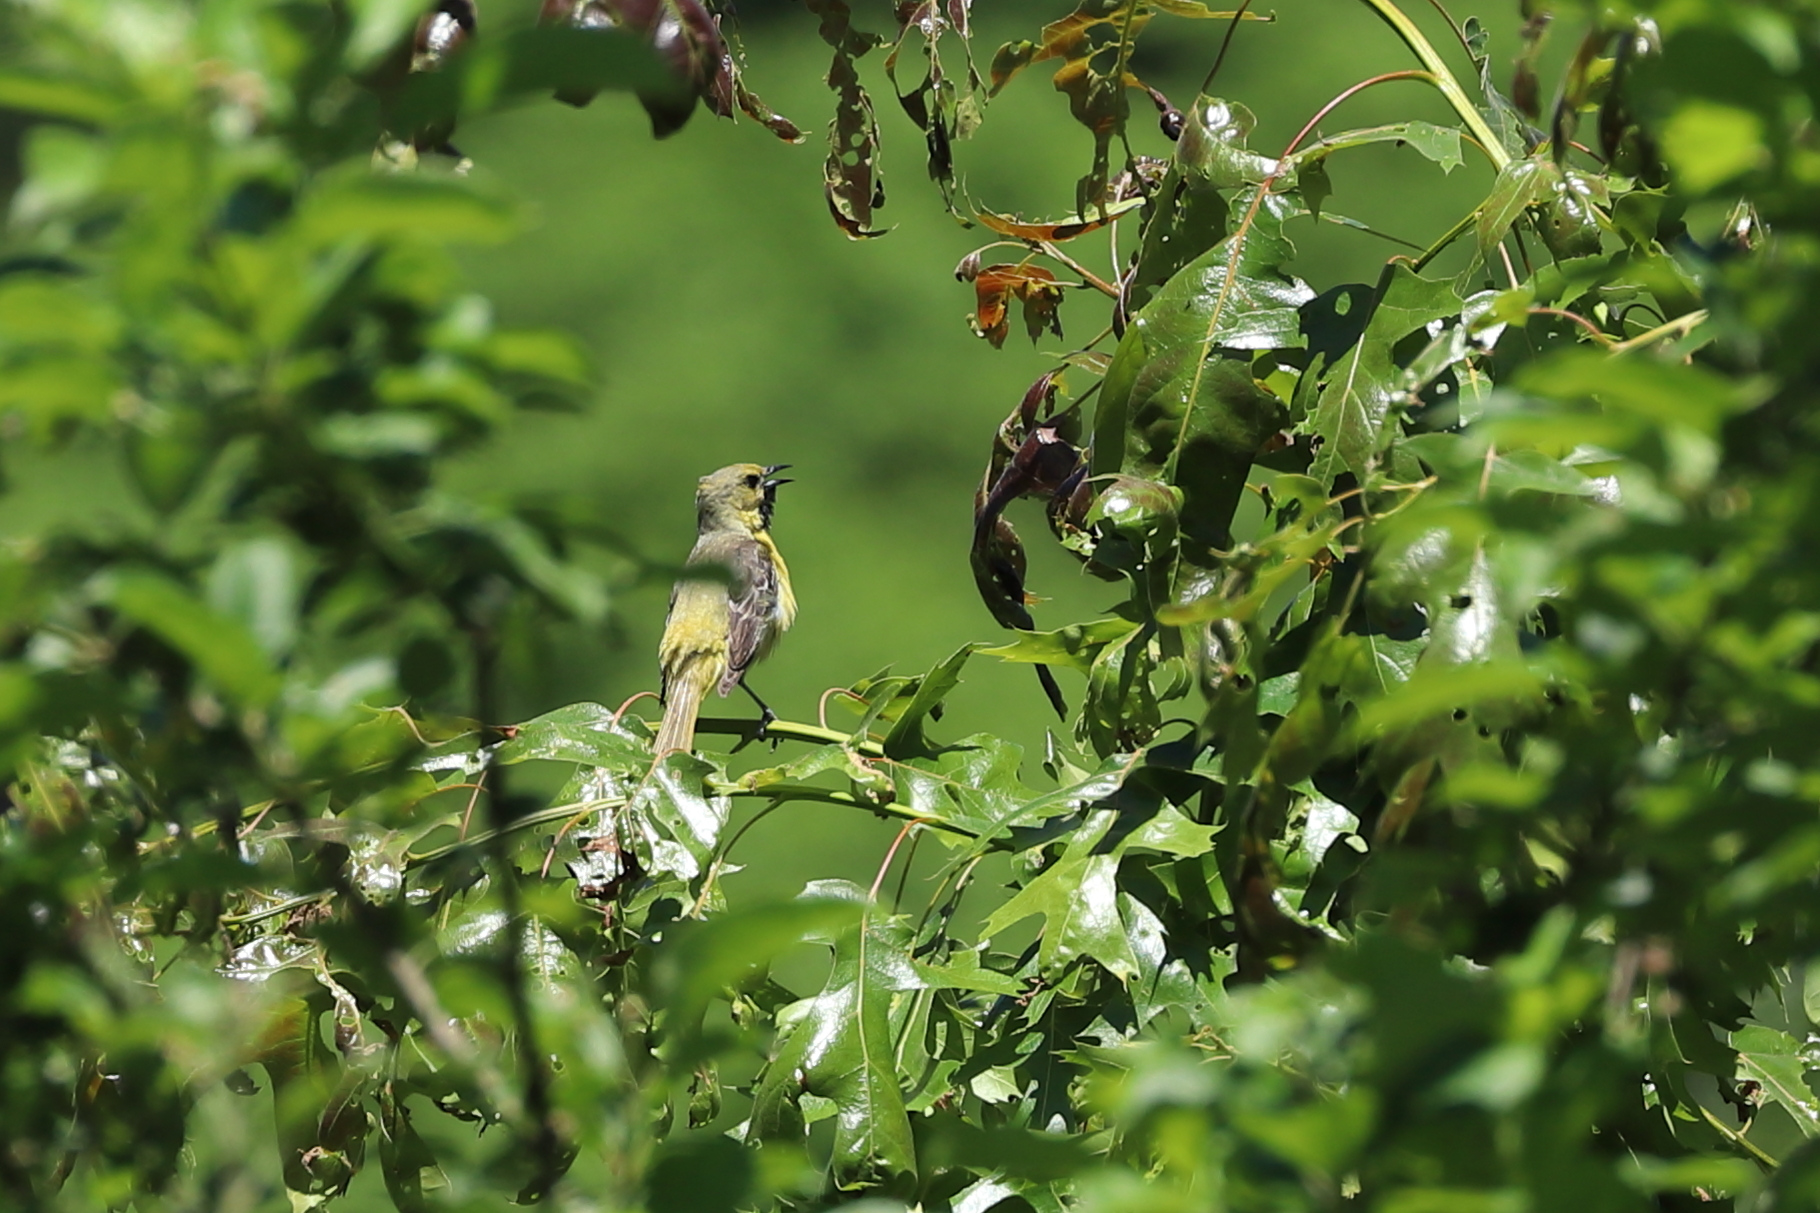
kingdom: Animalia
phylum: Chordata
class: Aves
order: Passeriformes
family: Icteridae
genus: Icterus
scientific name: Icterus spurius
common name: Orchard oriole
